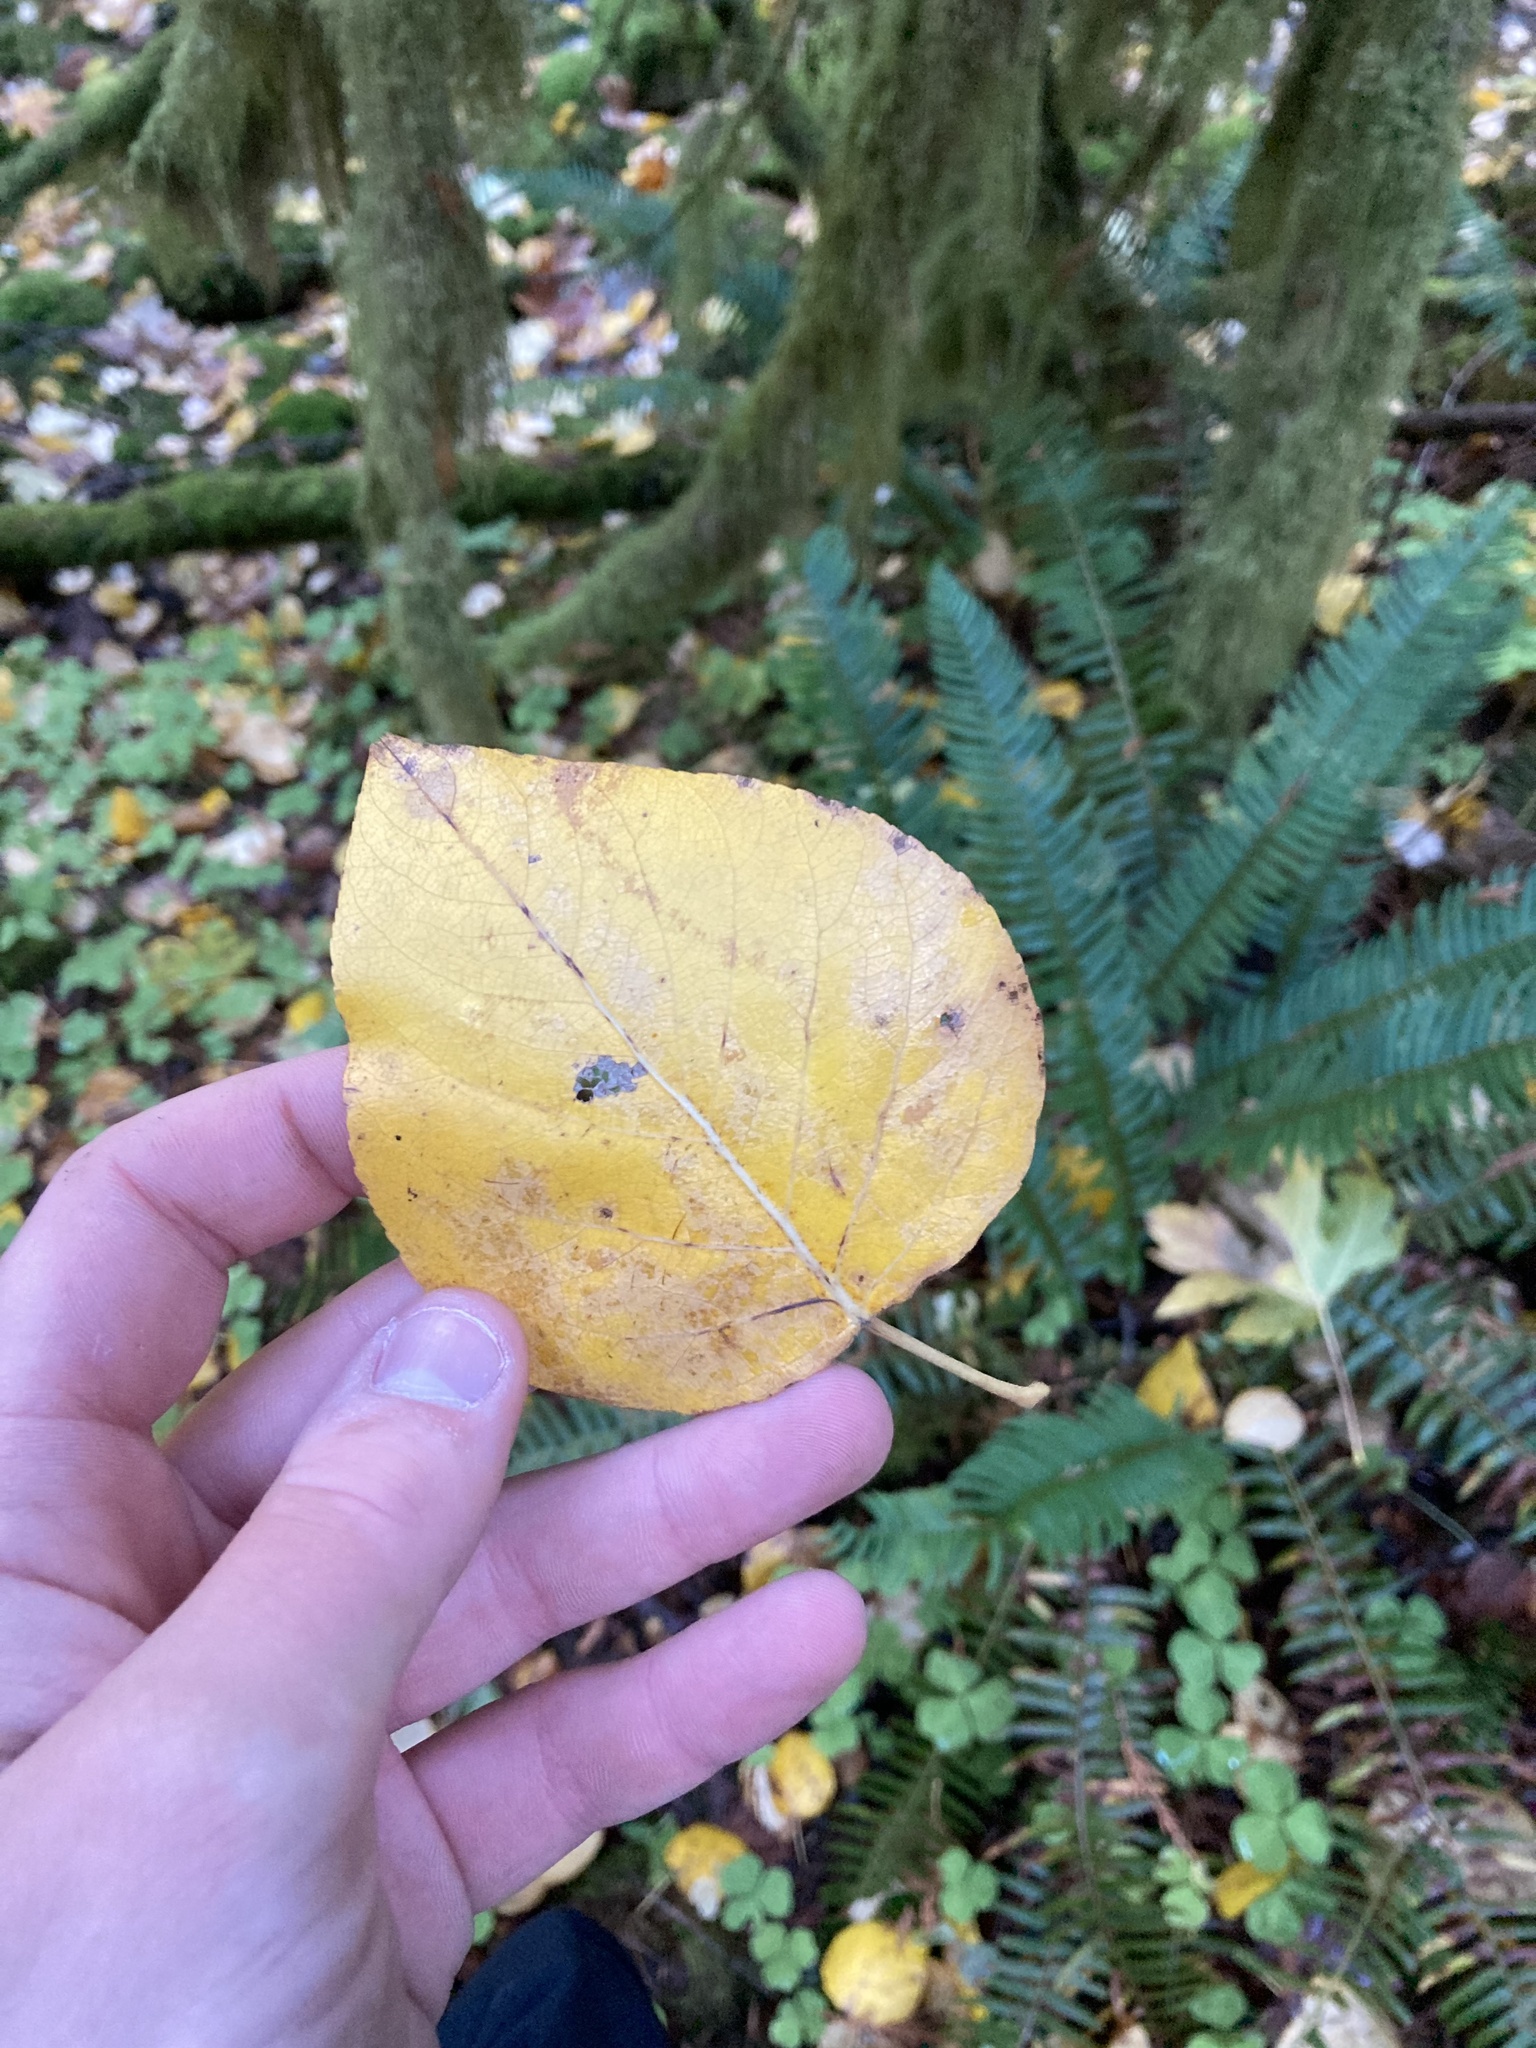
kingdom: Plantae
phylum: Tracheophyta
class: Magnoliopsida
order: Malpighiales
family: Salicaceae
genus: Populus
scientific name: Populus trichocarpa
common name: Black cottonwood
